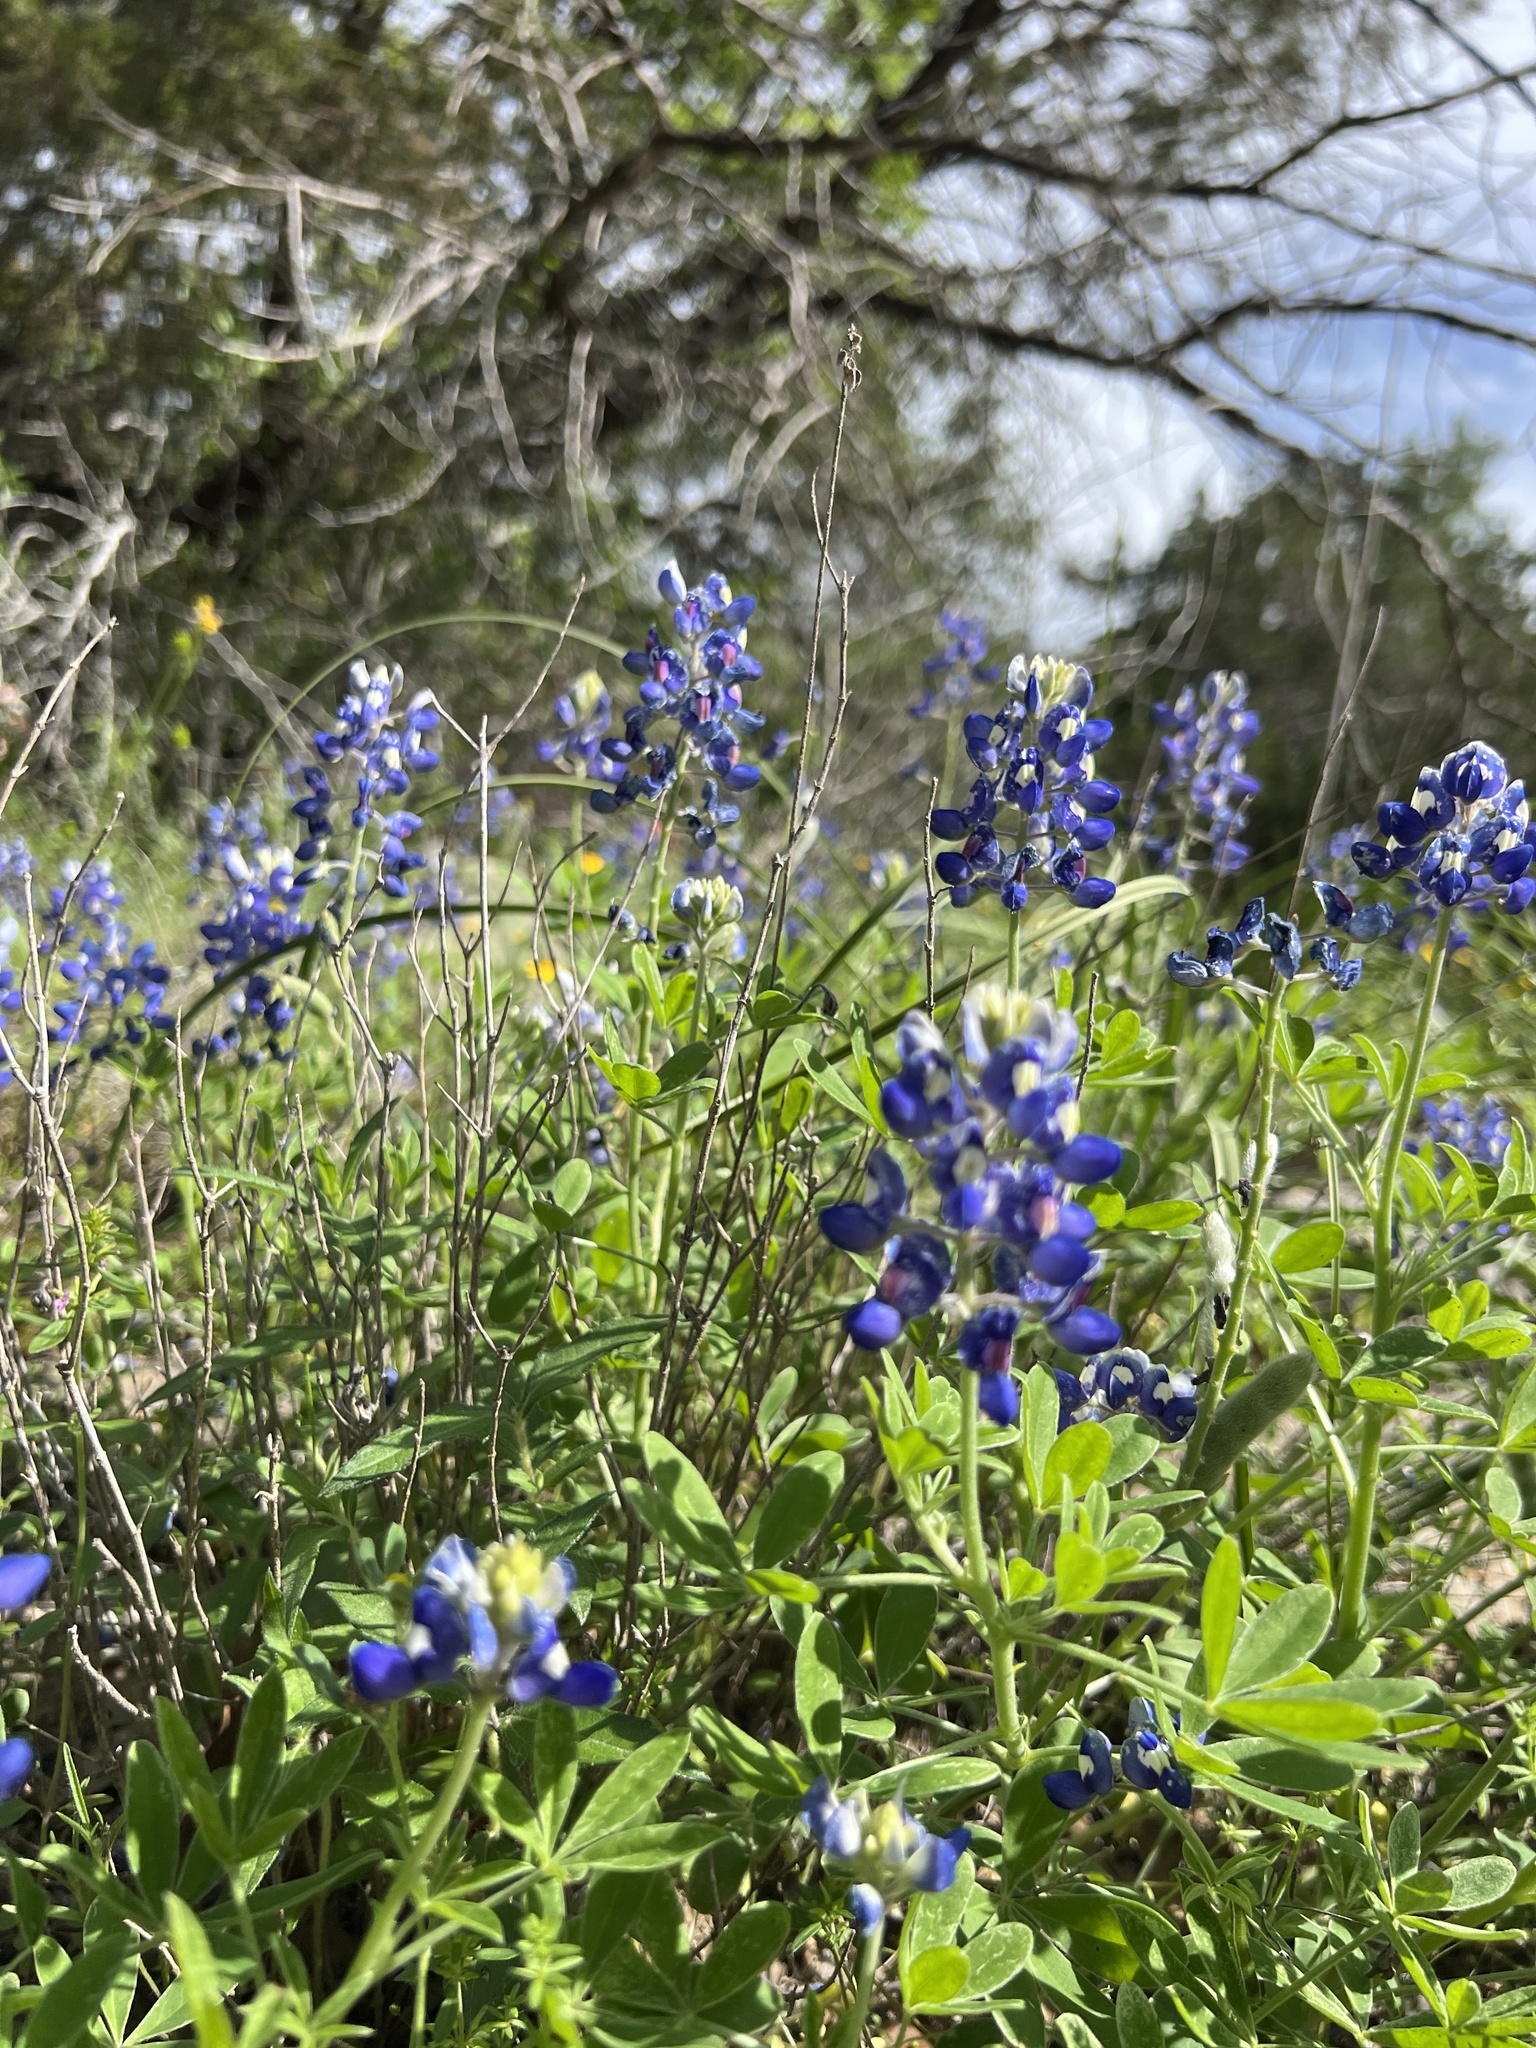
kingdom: Plantae
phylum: Tracheophyta
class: Magnoliopsida
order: Fabales
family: Fabaceae
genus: Lupinus
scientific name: Lupinus texensis
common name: Texas bluebonnet
